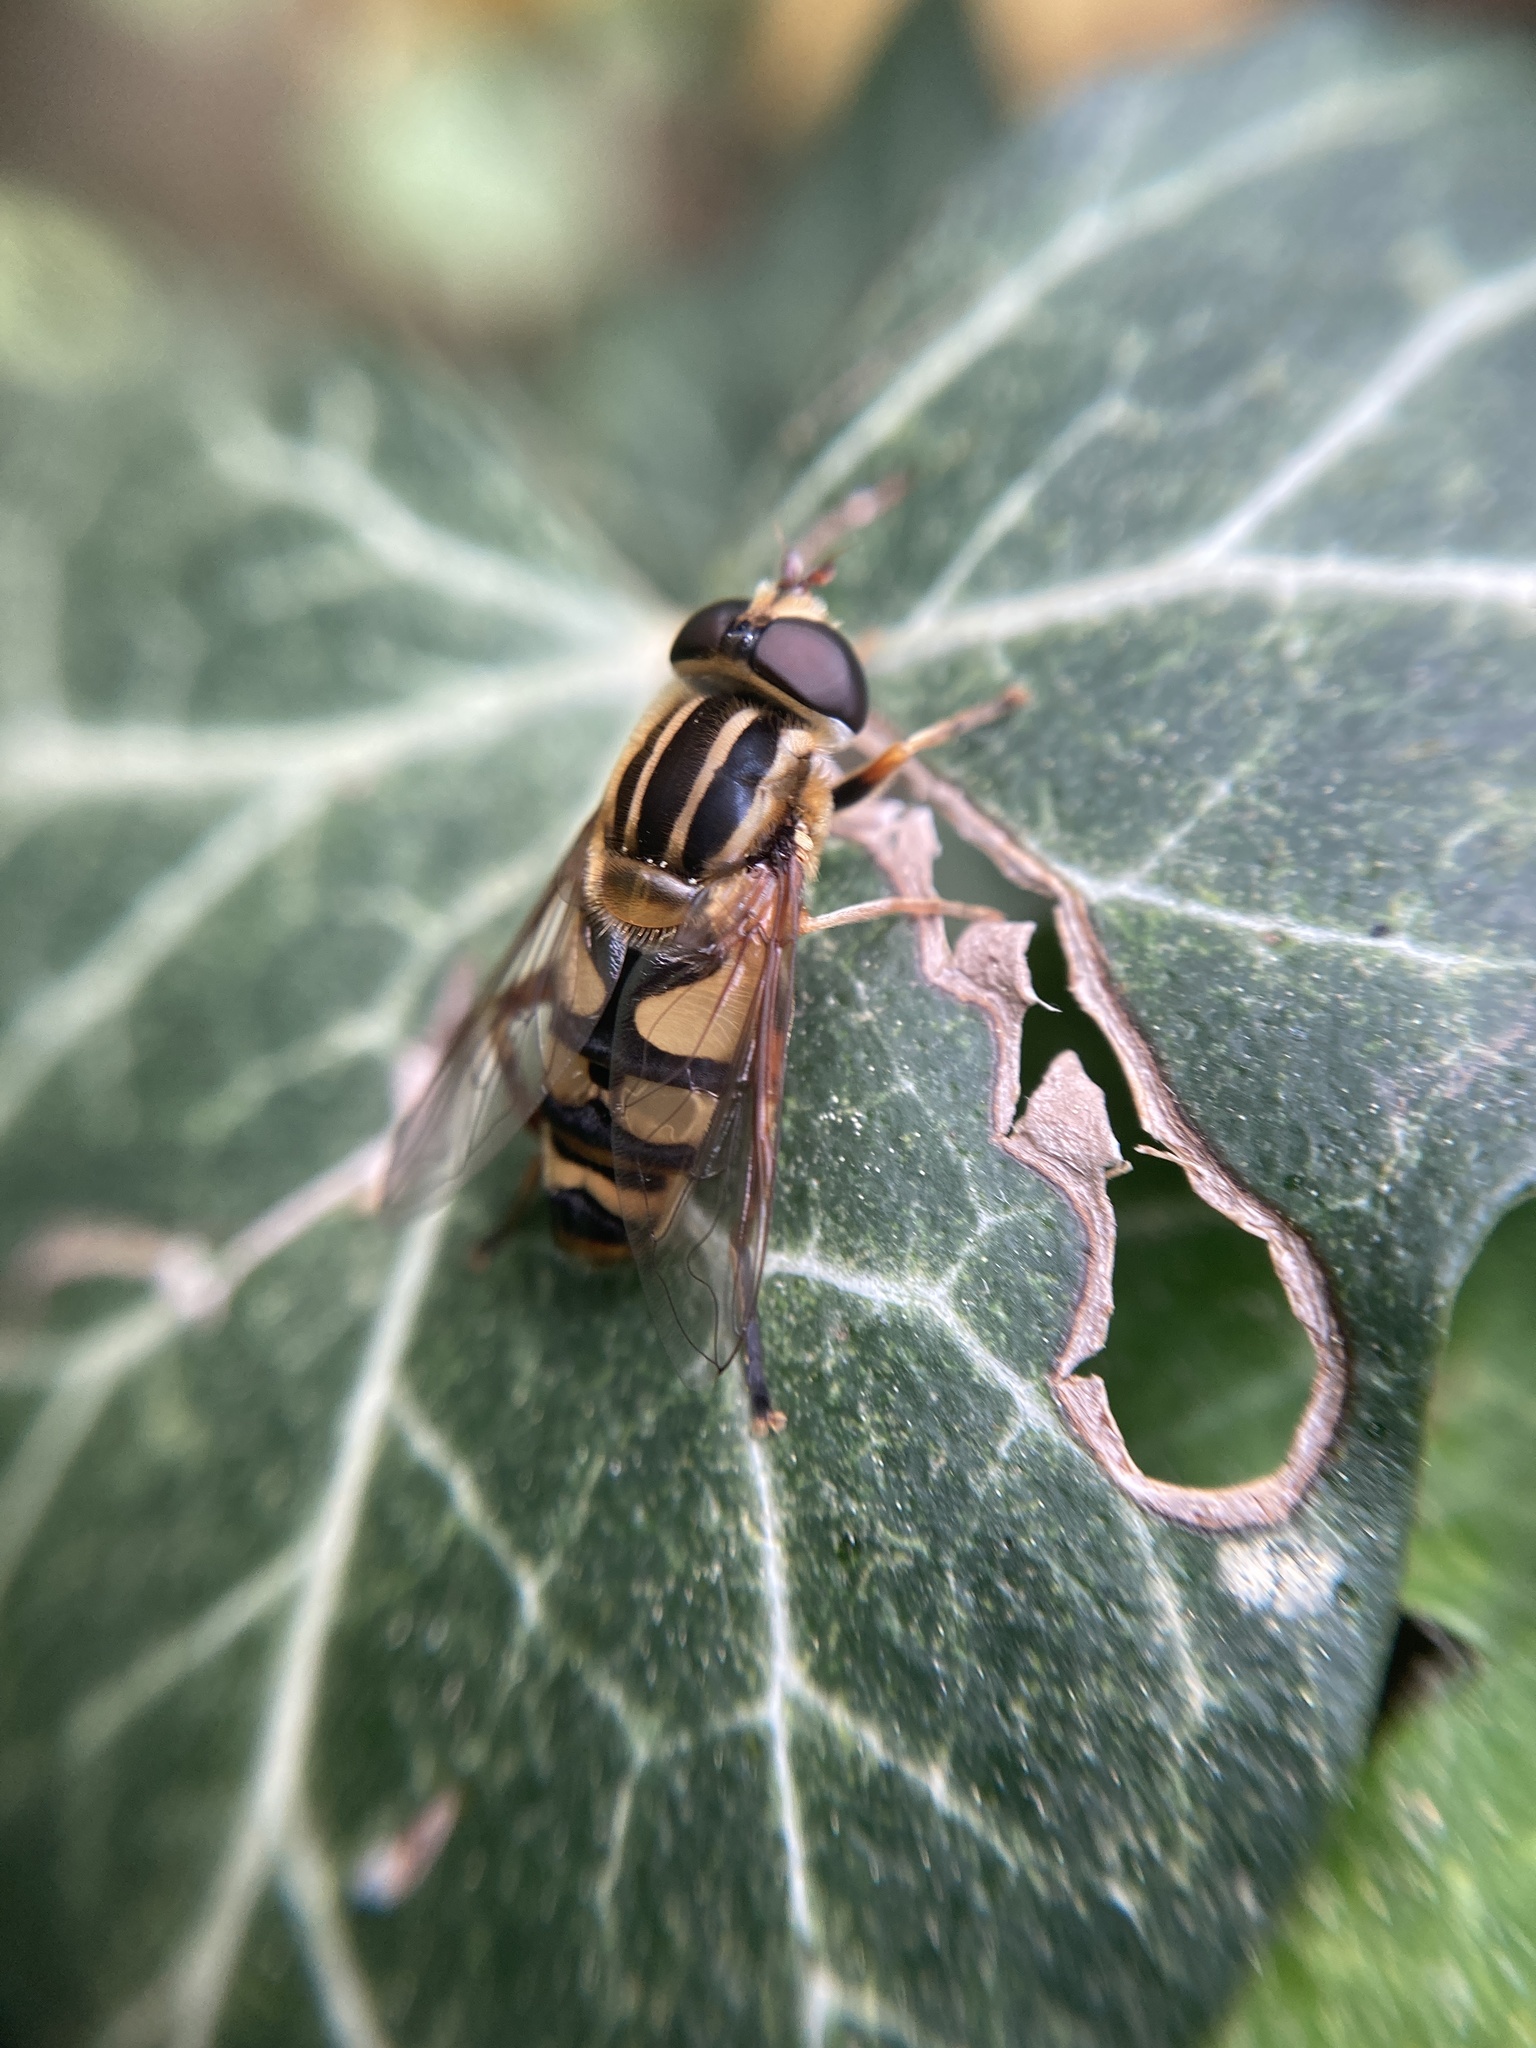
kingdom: Animalia
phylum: Arthropoda
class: Insecta
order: Diptera
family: Syrphidae
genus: Helophilus
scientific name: Helophilus fasciatus
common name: Narrow-headed marsh fly
